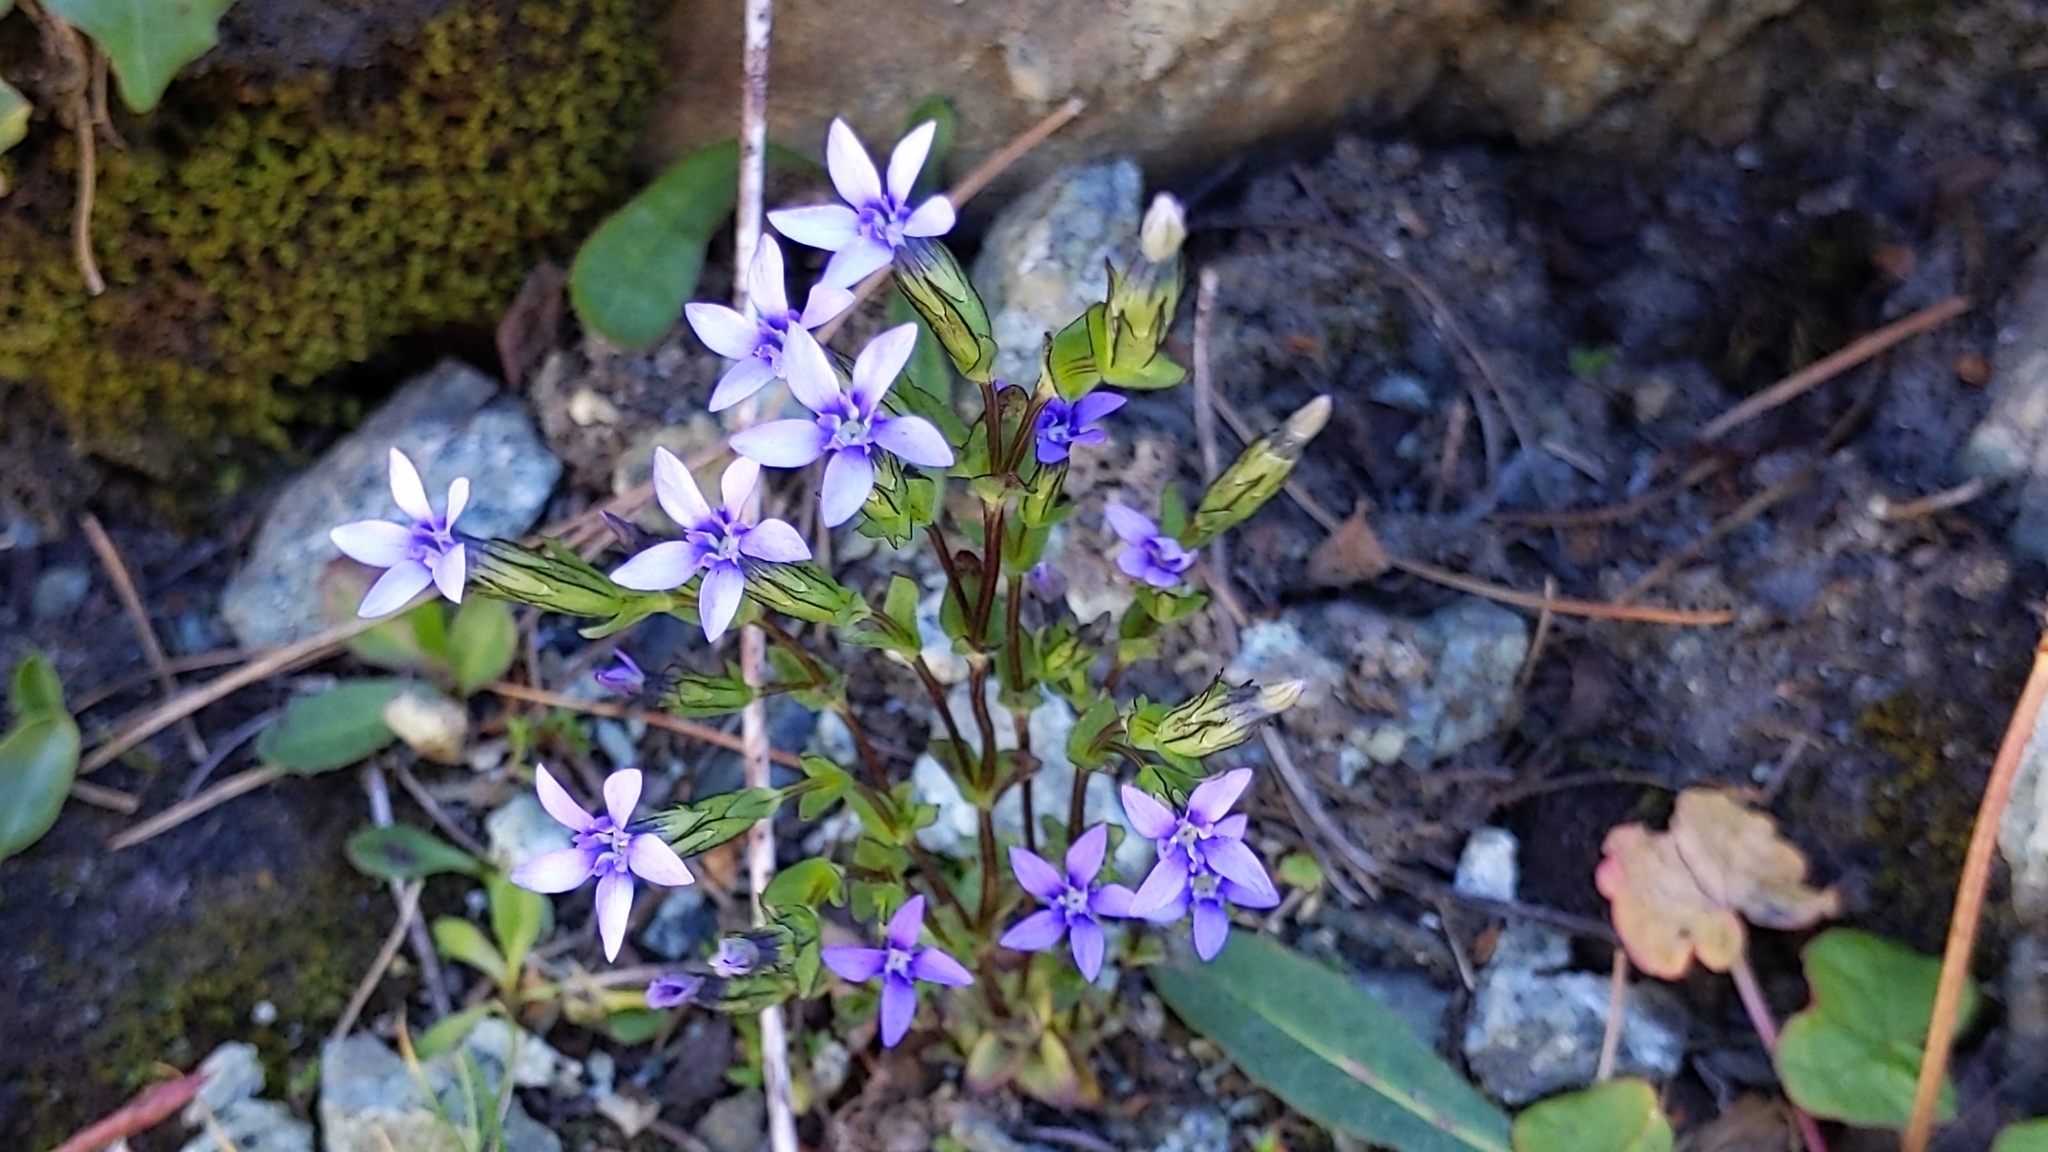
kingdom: Plantae
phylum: Tracheophyta
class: Magnoliopsida
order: Gentianales
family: Gentianaceae
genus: Gentiana
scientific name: Gentiana nivalis
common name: Alpine gentian
